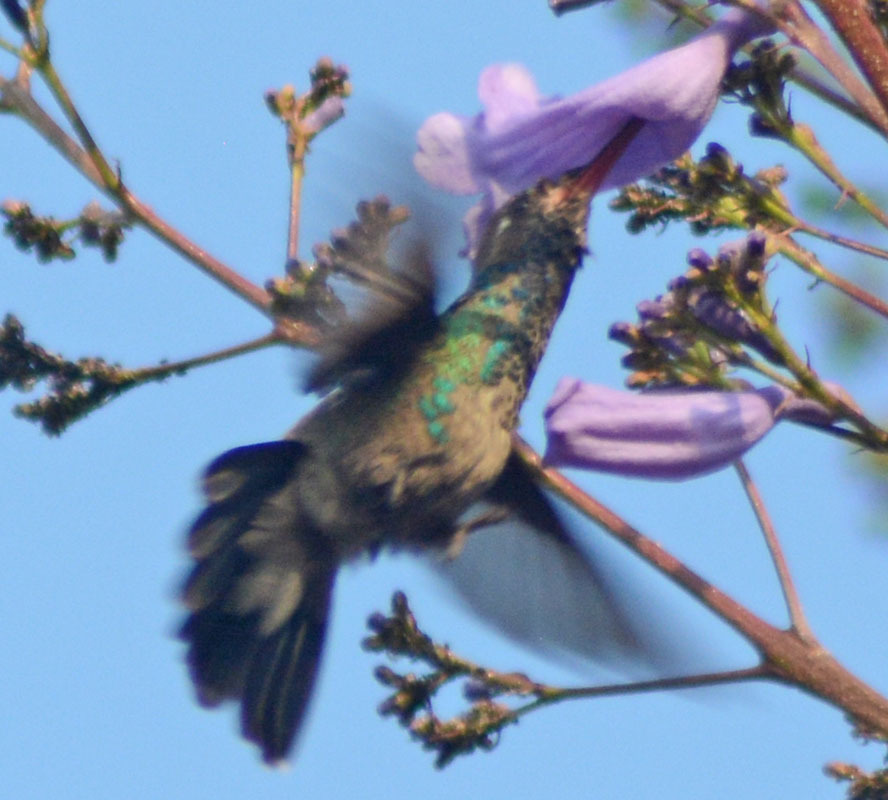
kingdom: Animalia
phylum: Chordata
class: Aves
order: Apodiformes
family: Trochilidae
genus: Cynanthus
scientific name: Cynanthus latirostris
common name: Broad-billed hummingbird
